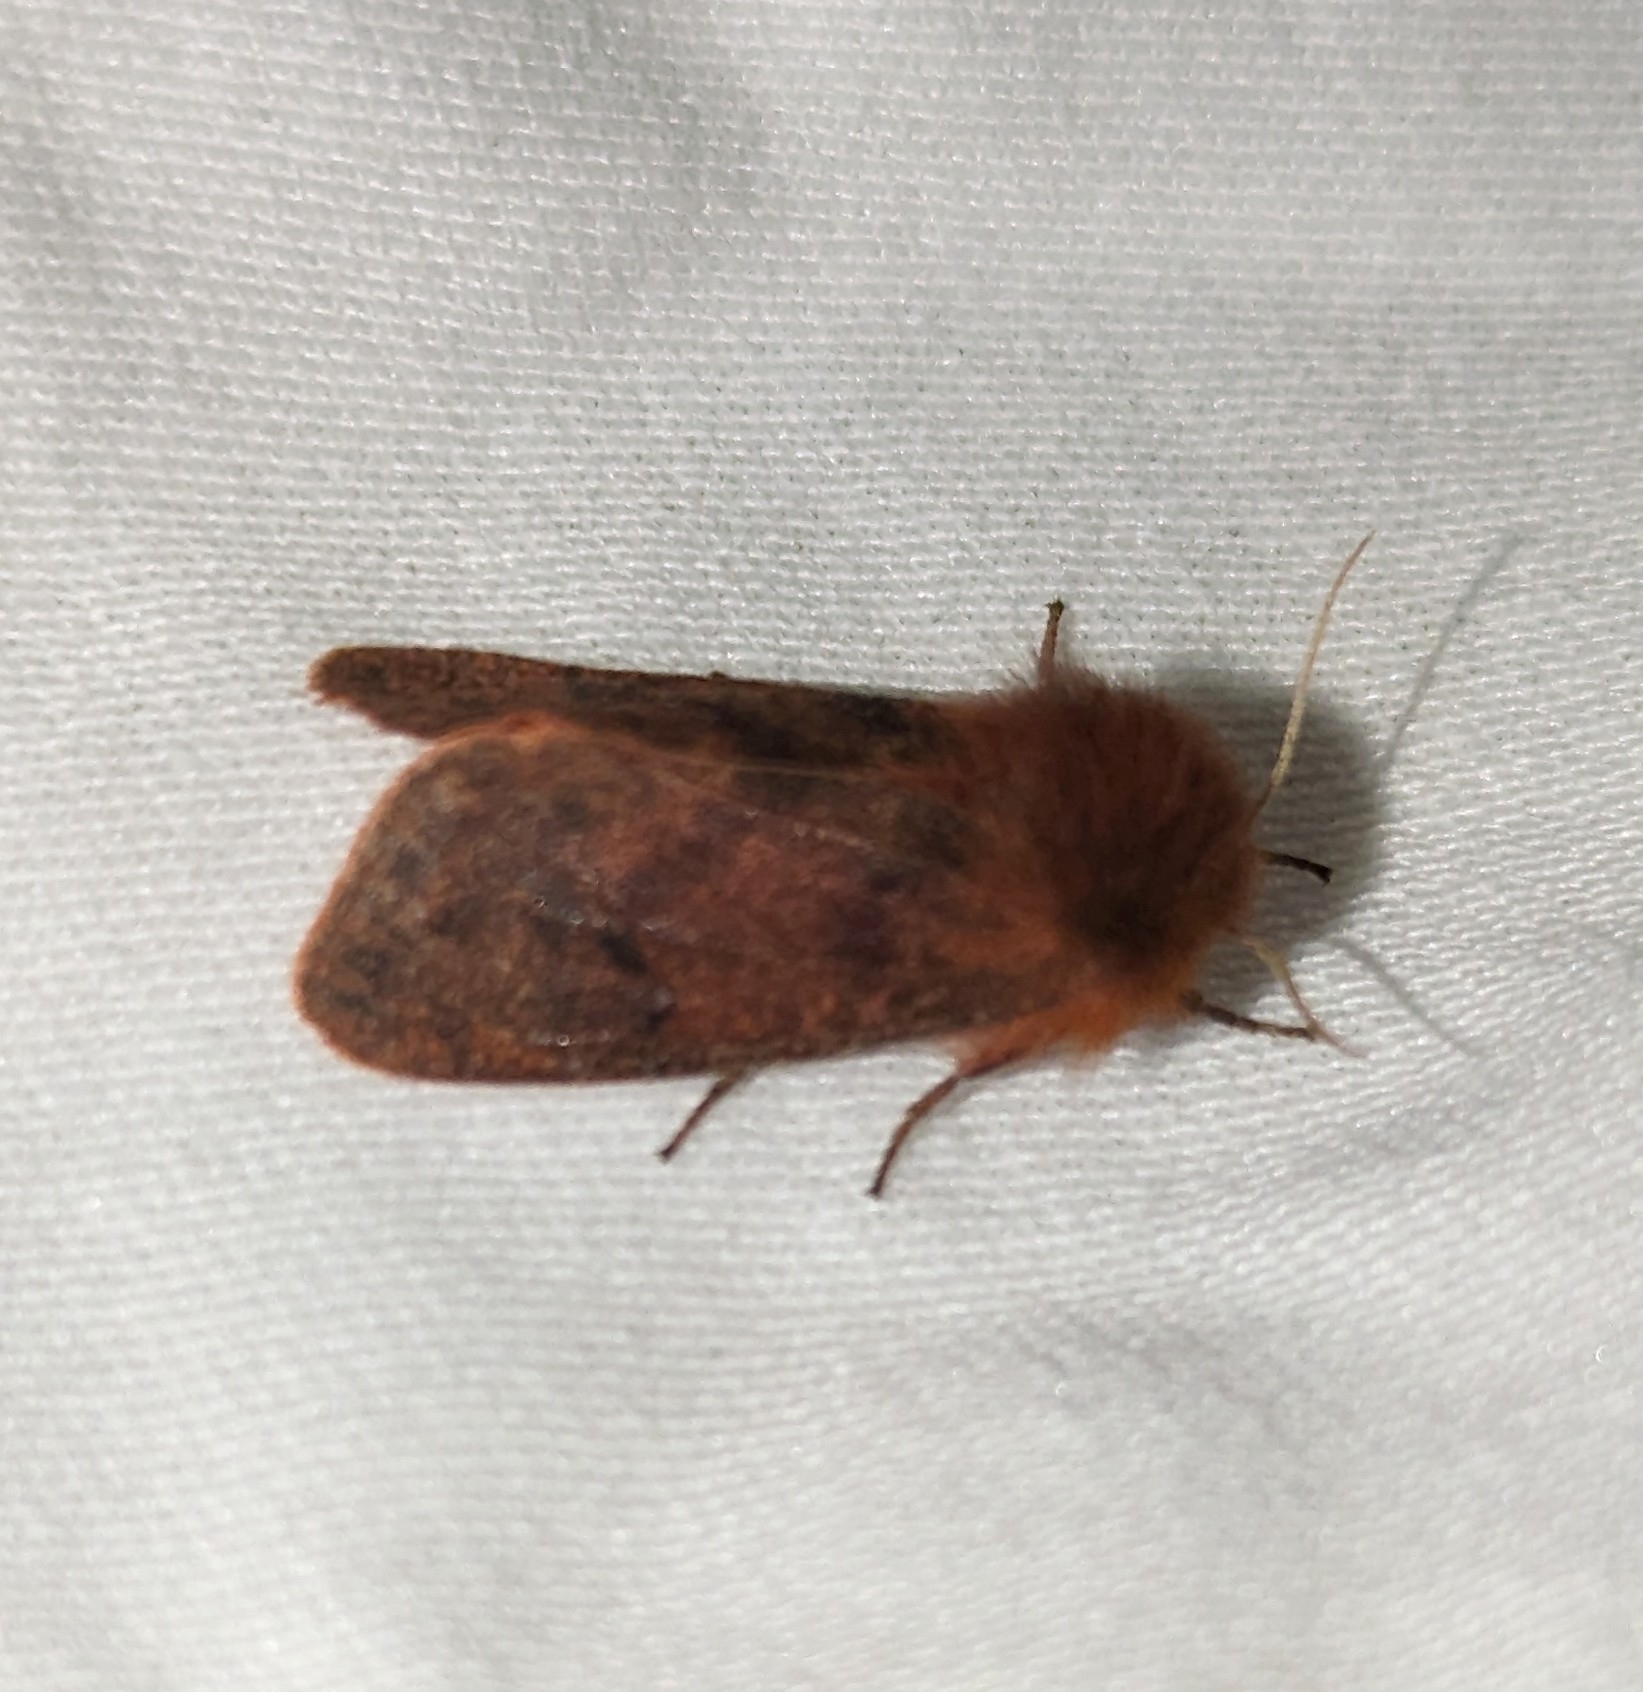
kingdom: Animalia
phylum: Arthropoda
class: Insecta
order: Lepidoptera
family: Erebidae
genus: Phragmatobia
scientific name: Phragmatobia assimilans
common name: Large ruby tiger moth
